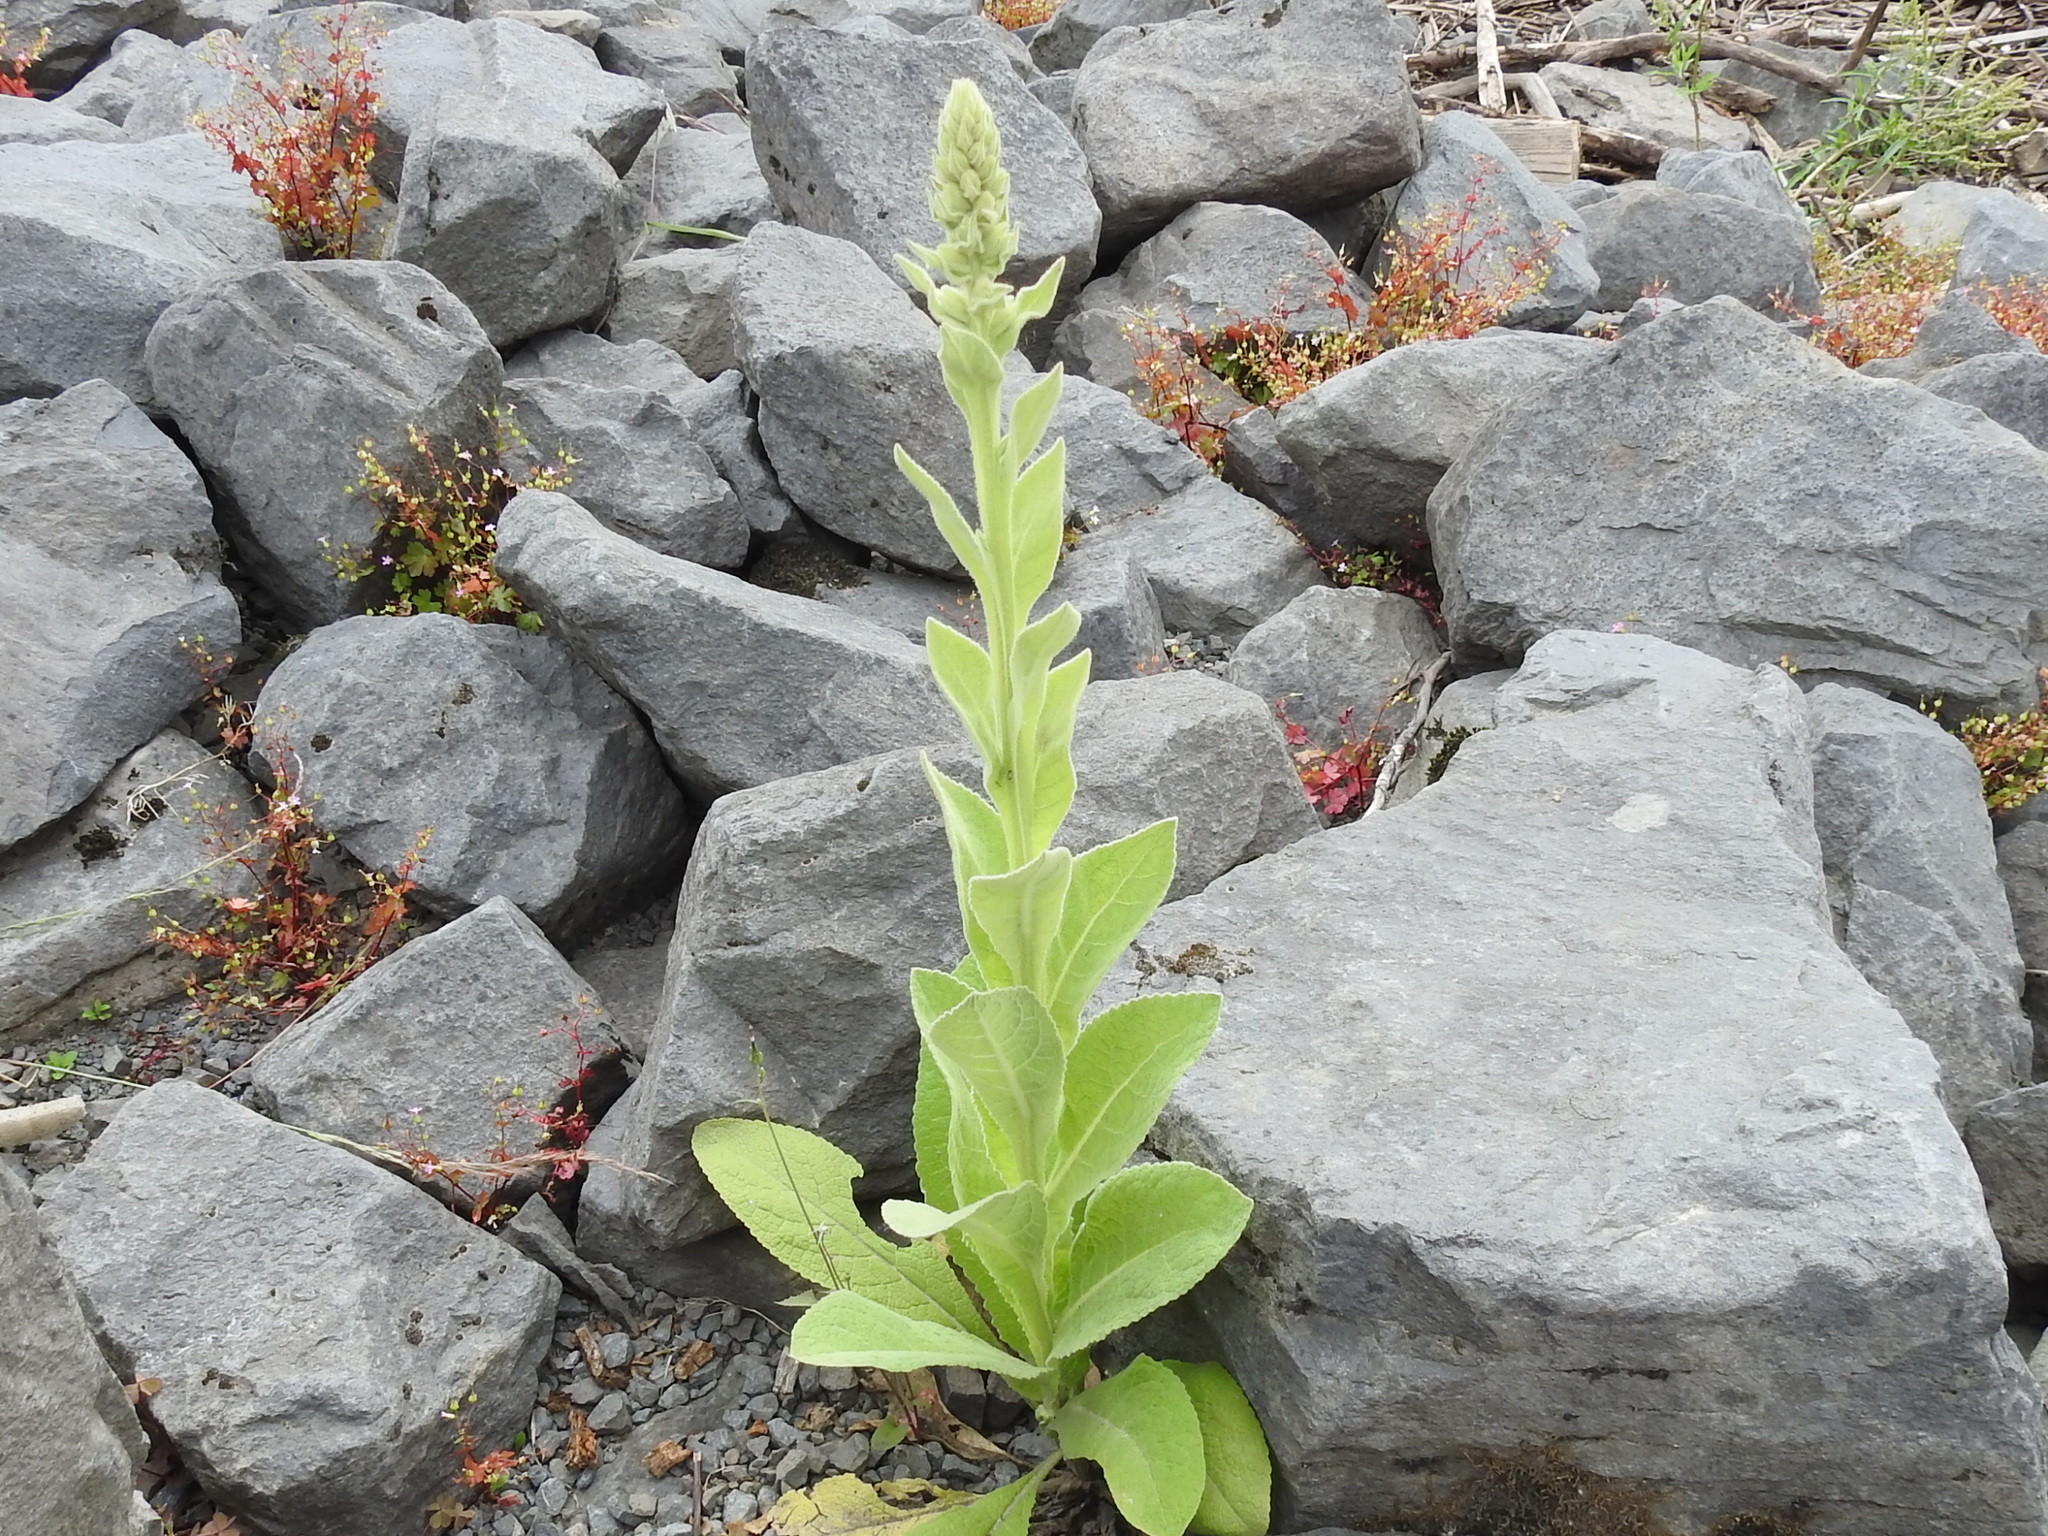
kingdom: Plantae
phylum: Tracheophyta
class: Magnoliopsida
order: Lamiales
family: Scrophulariaceae
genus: Verbascum
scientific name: Verbascum thapsus
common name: Common mullein
